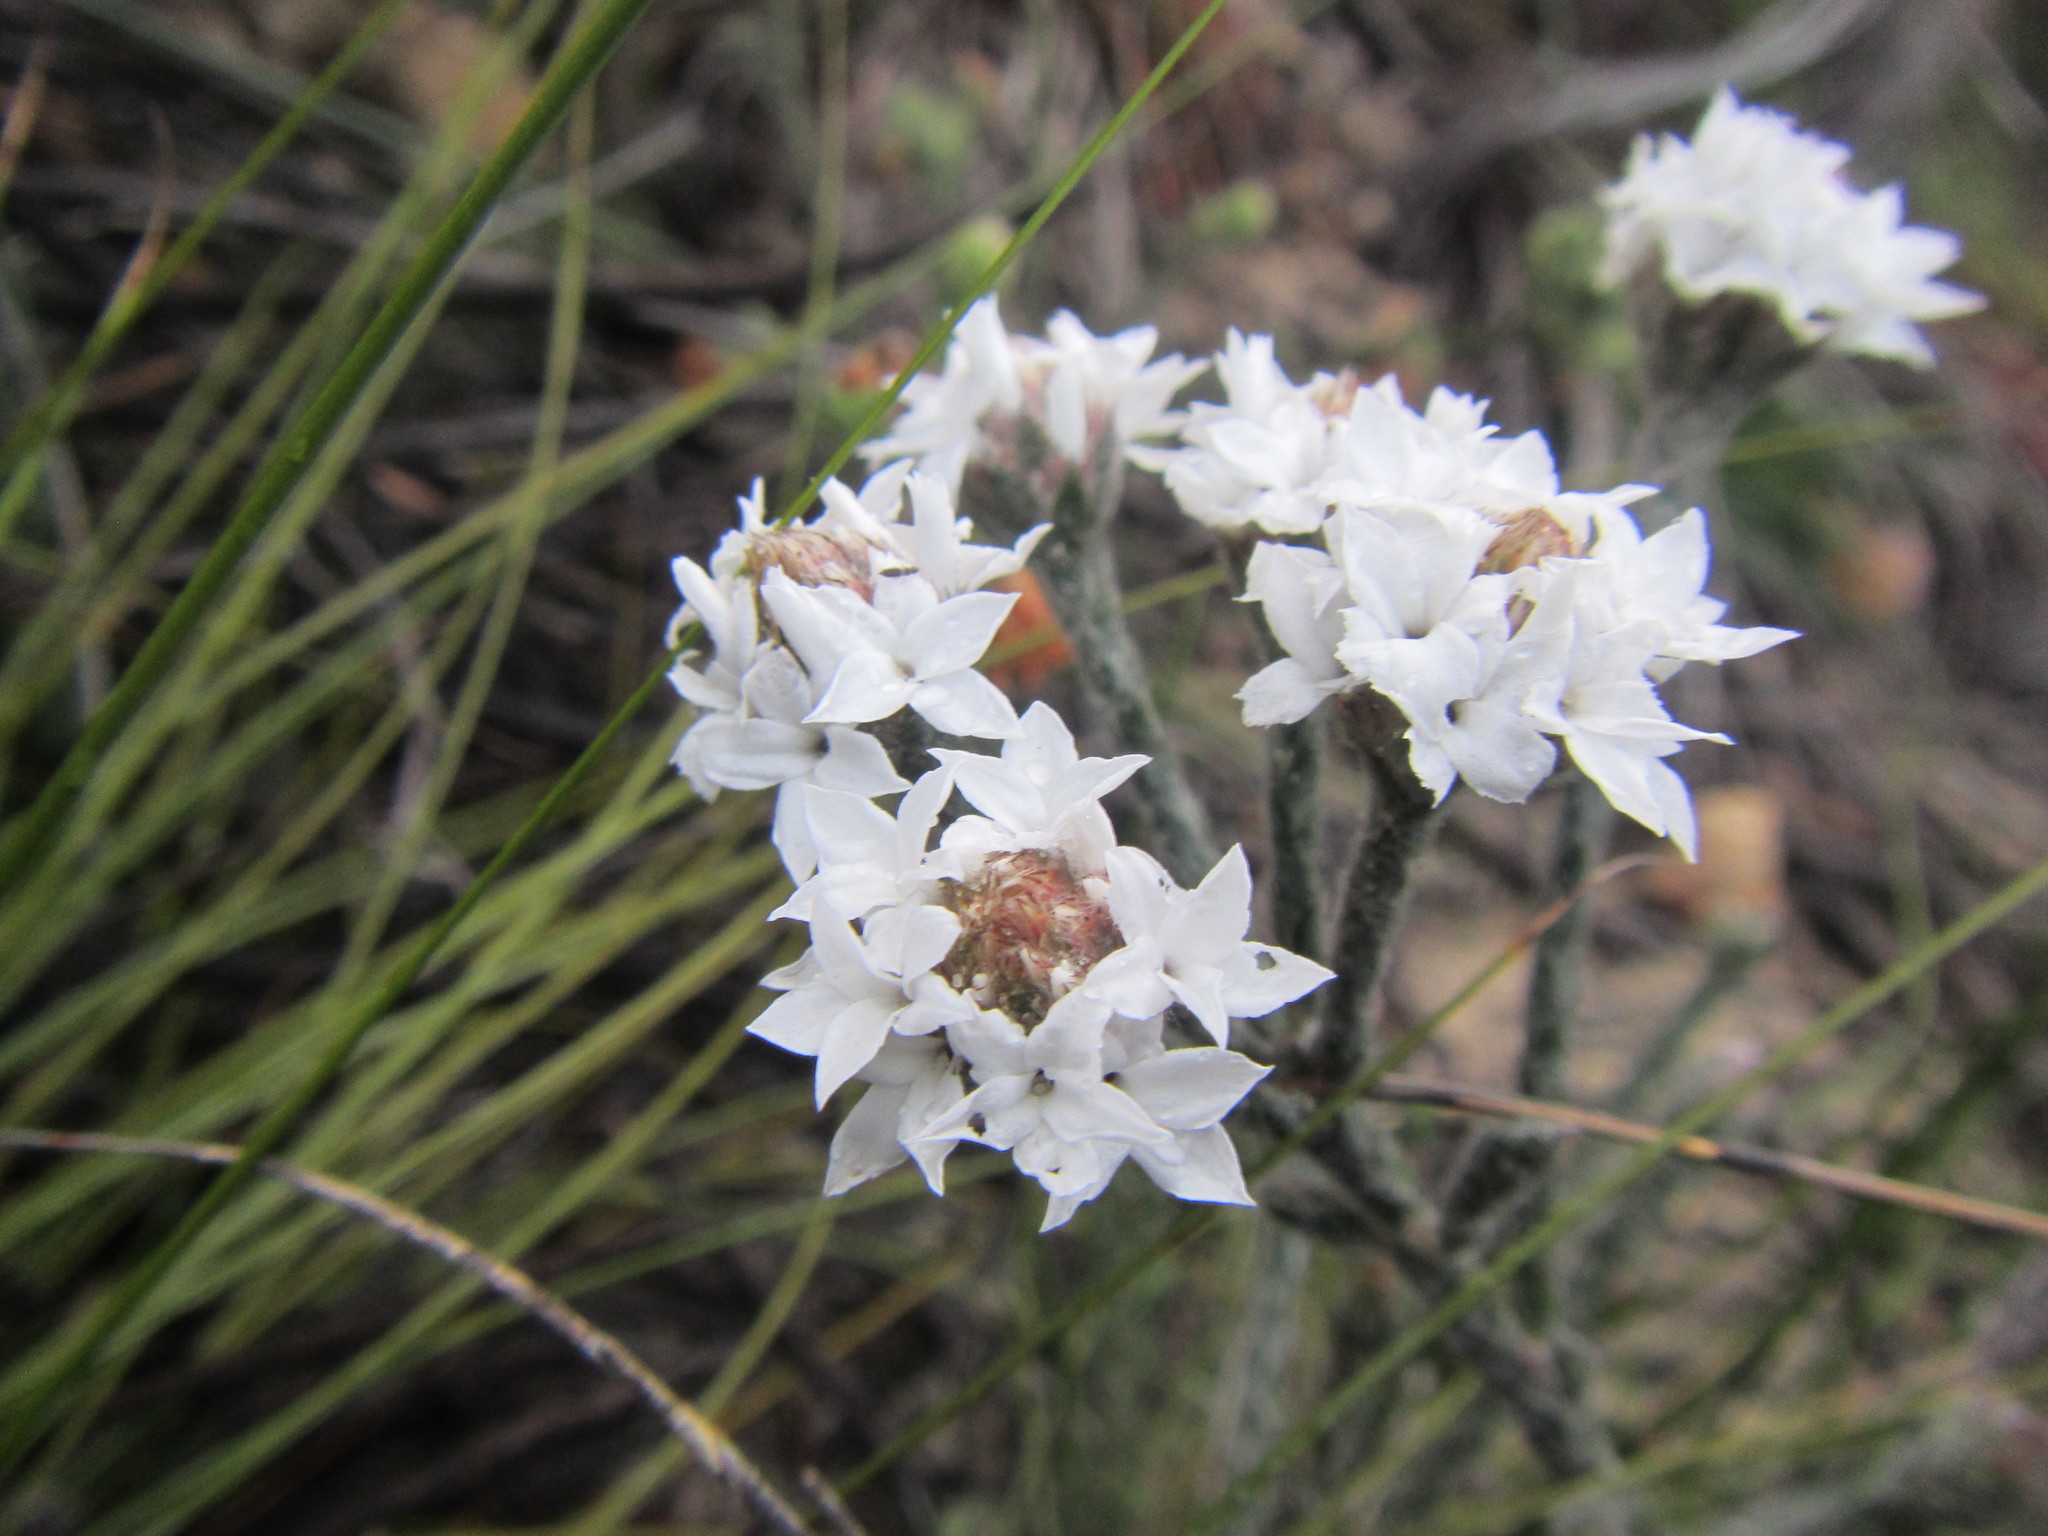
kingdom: Plantae
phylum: Tracheophyta
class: Magnoliopsida
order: Bruniales
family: Bruniaceae
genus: Brunia
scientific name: Brunia monogyna
